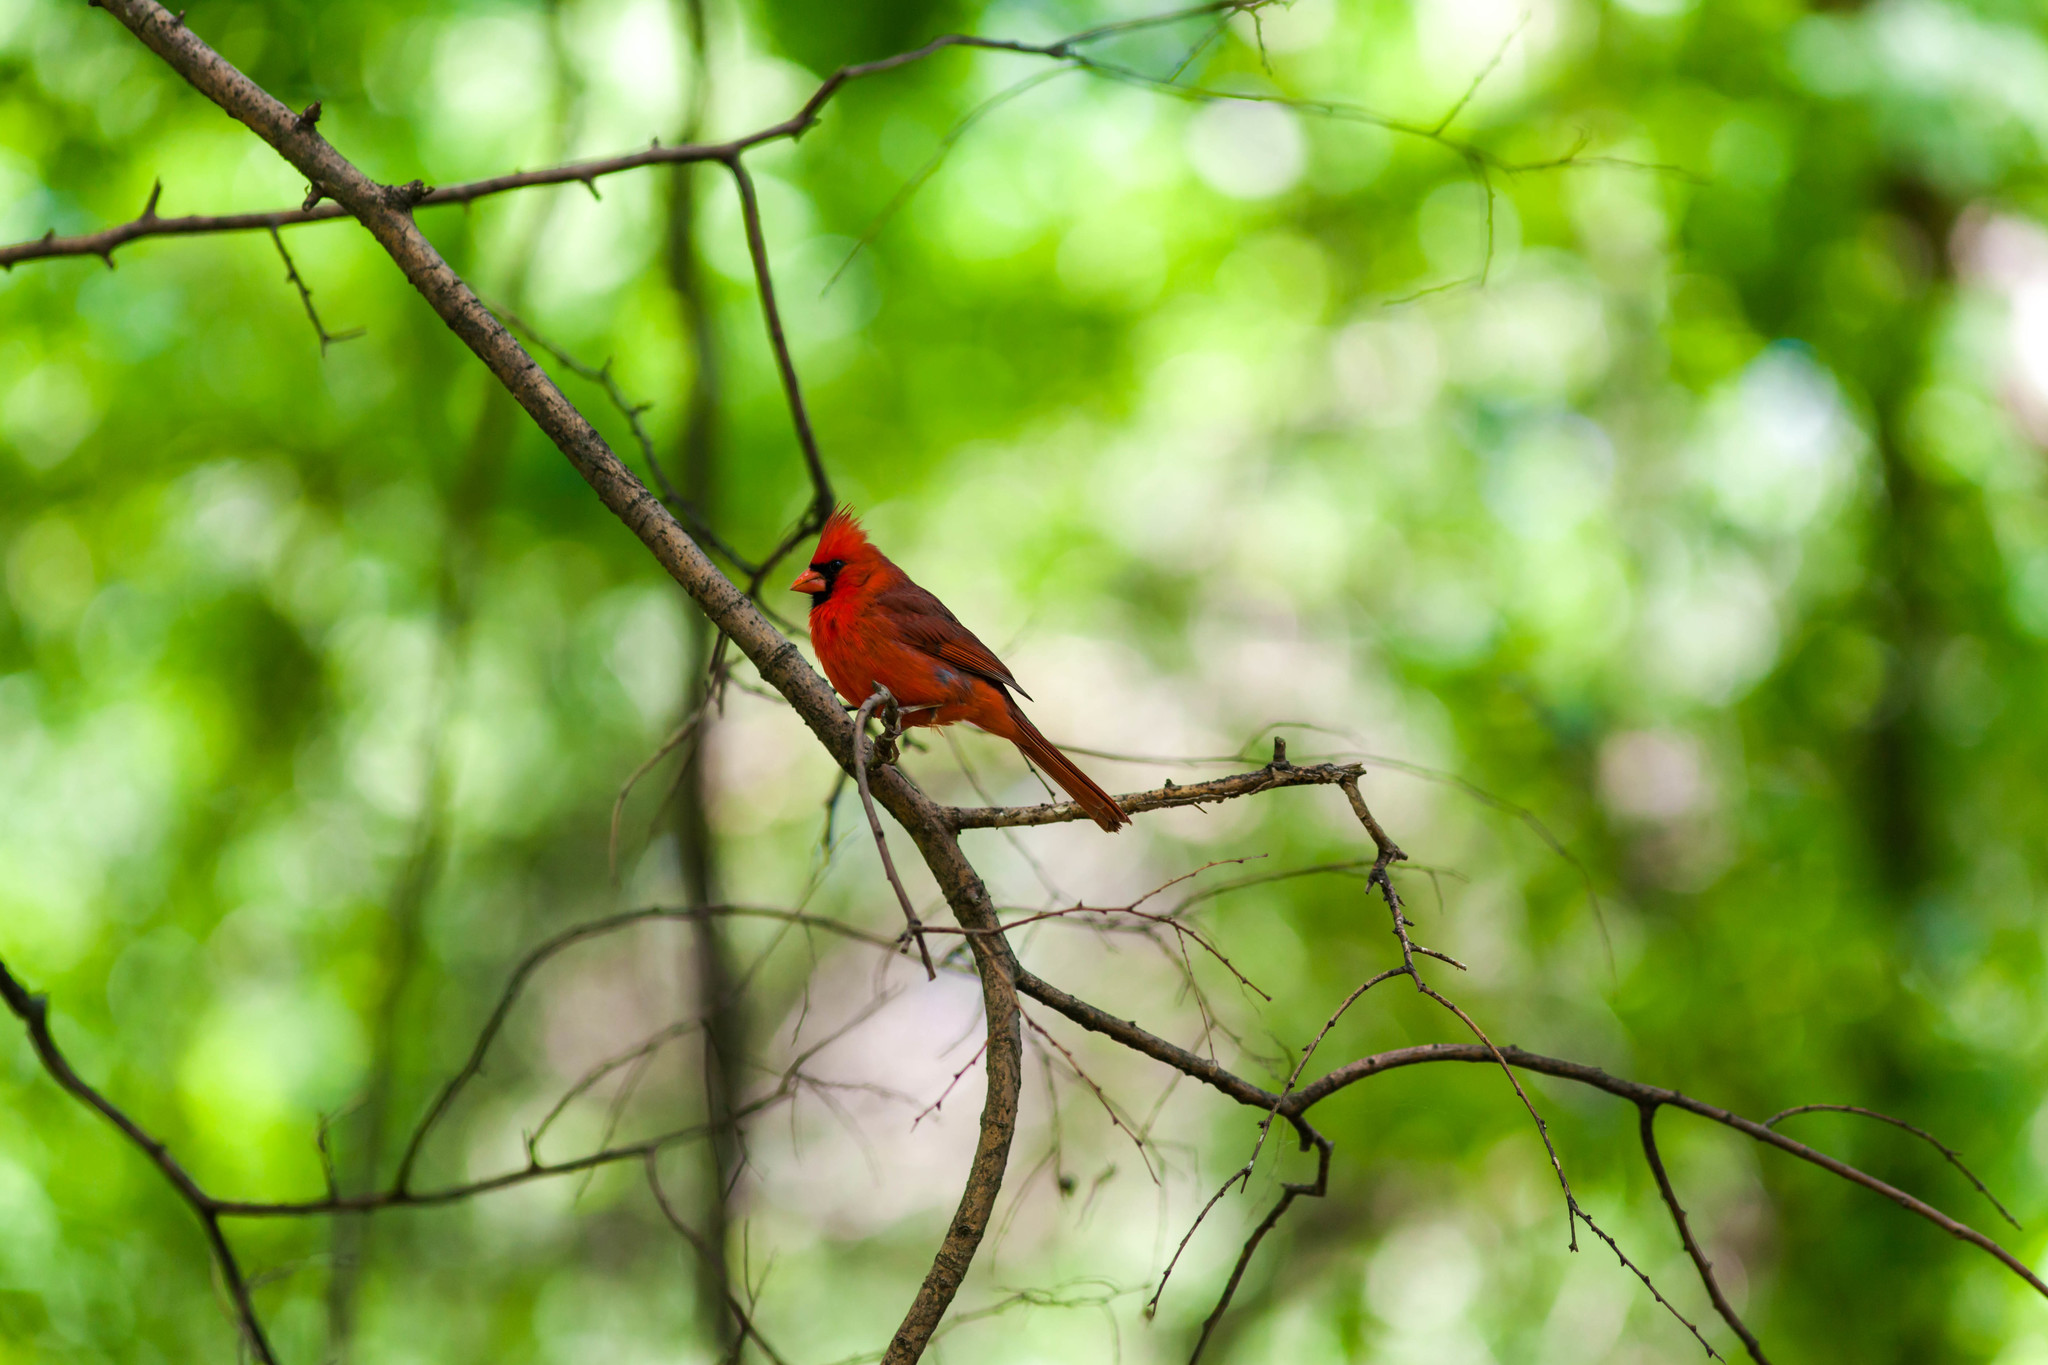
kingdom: Animalia
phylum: Chordata
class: Aves
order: Passeriformes
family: Cardinalidae
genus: Cardinalis
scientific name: Cardinalis cardinalis
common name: Northern cardinal
